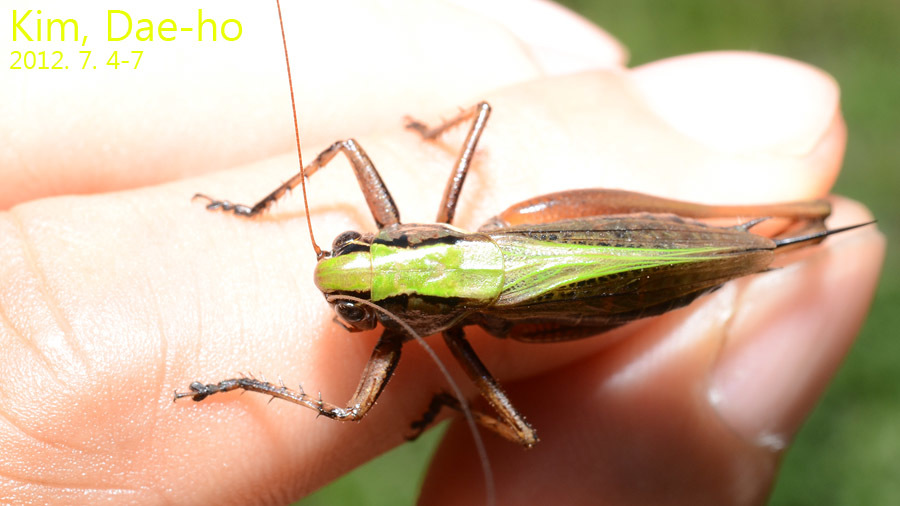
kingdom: Animalia
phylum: Arthropoda
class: Insecta
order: Orthoptera
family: Tettigoniidae
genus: Eobiana
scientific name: Eobiana engelhardti
